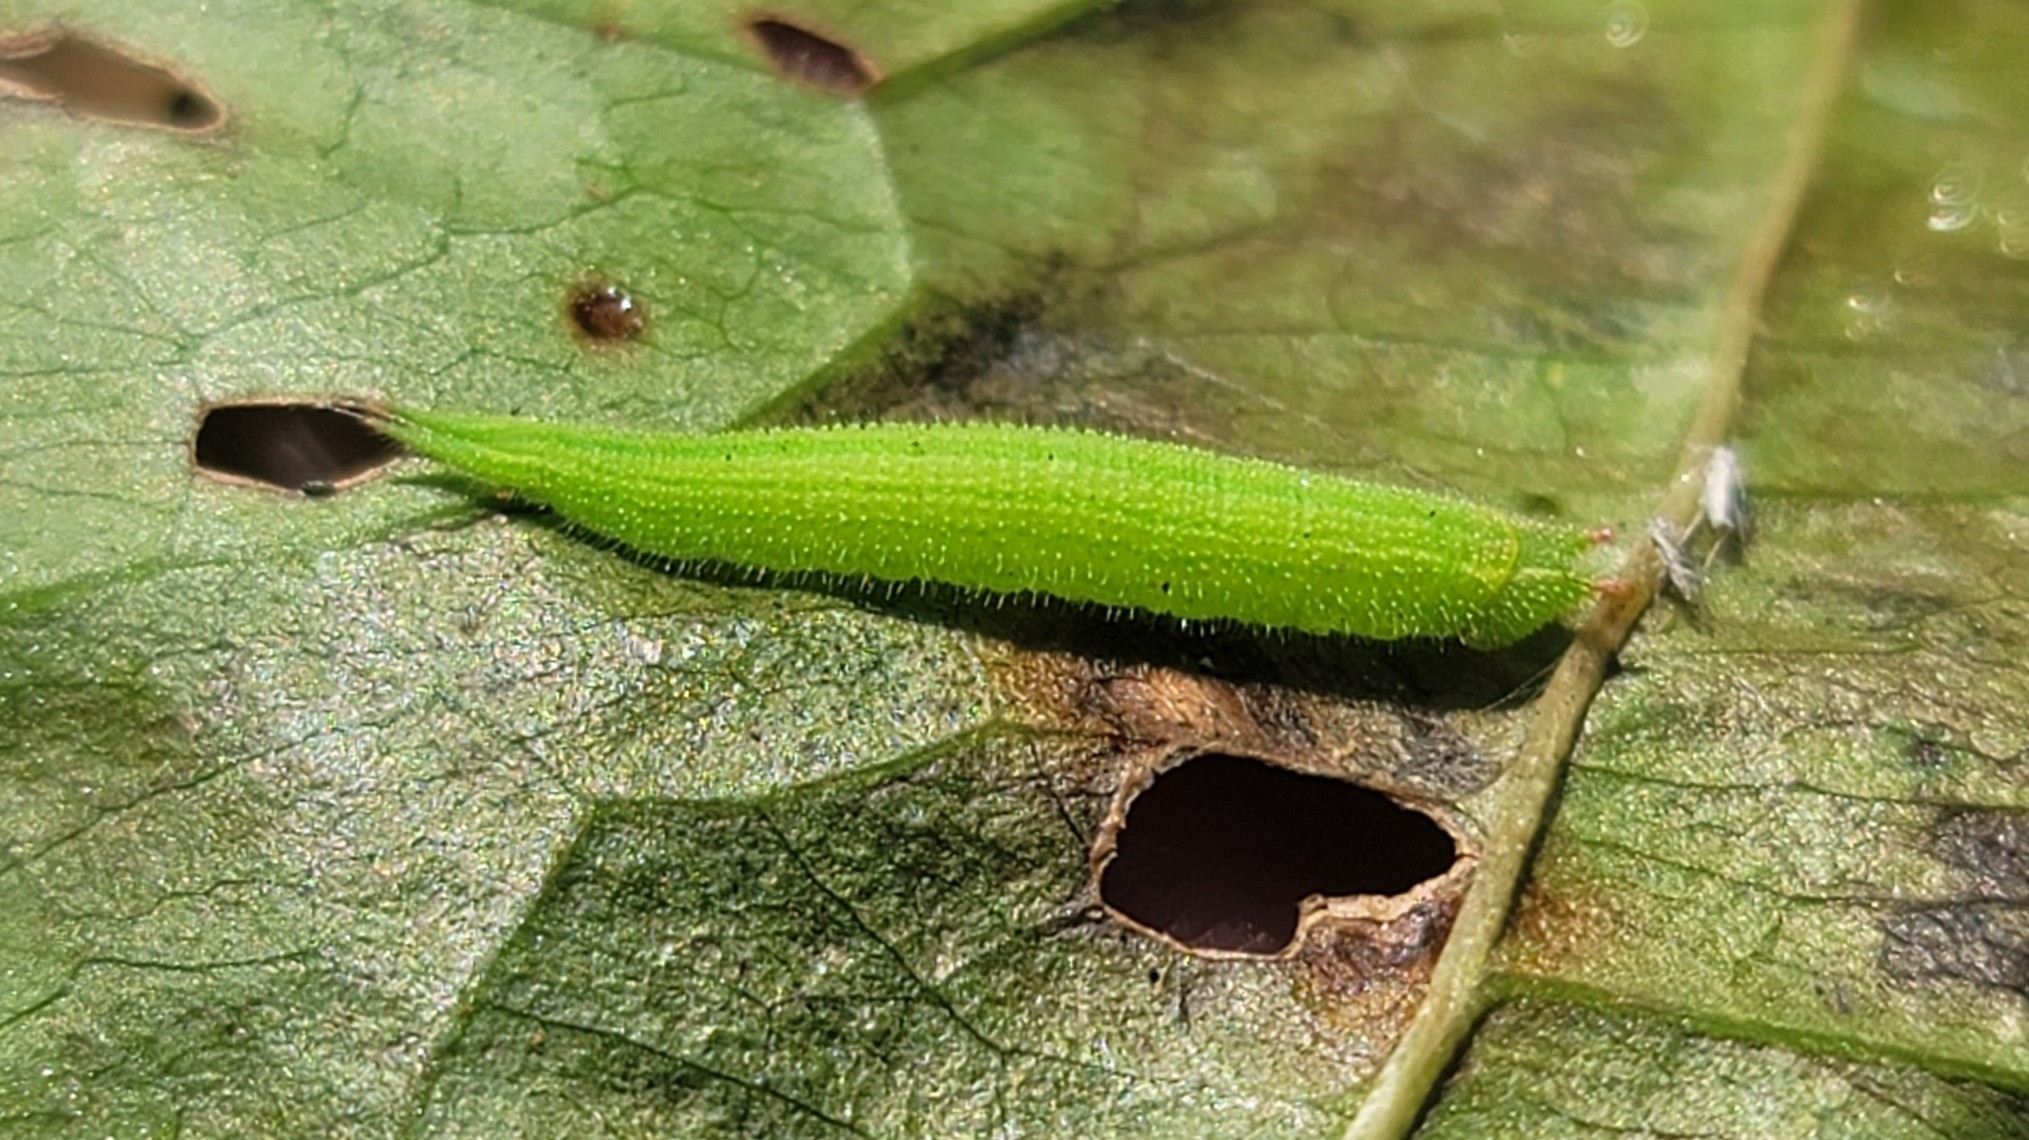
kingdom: Animalia
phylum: Arthropoda
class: Insecta
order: Lepidoptera
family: Nymphalidae
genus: Lethe
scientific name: Lethe anthedon
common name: Northern pearly-eye
